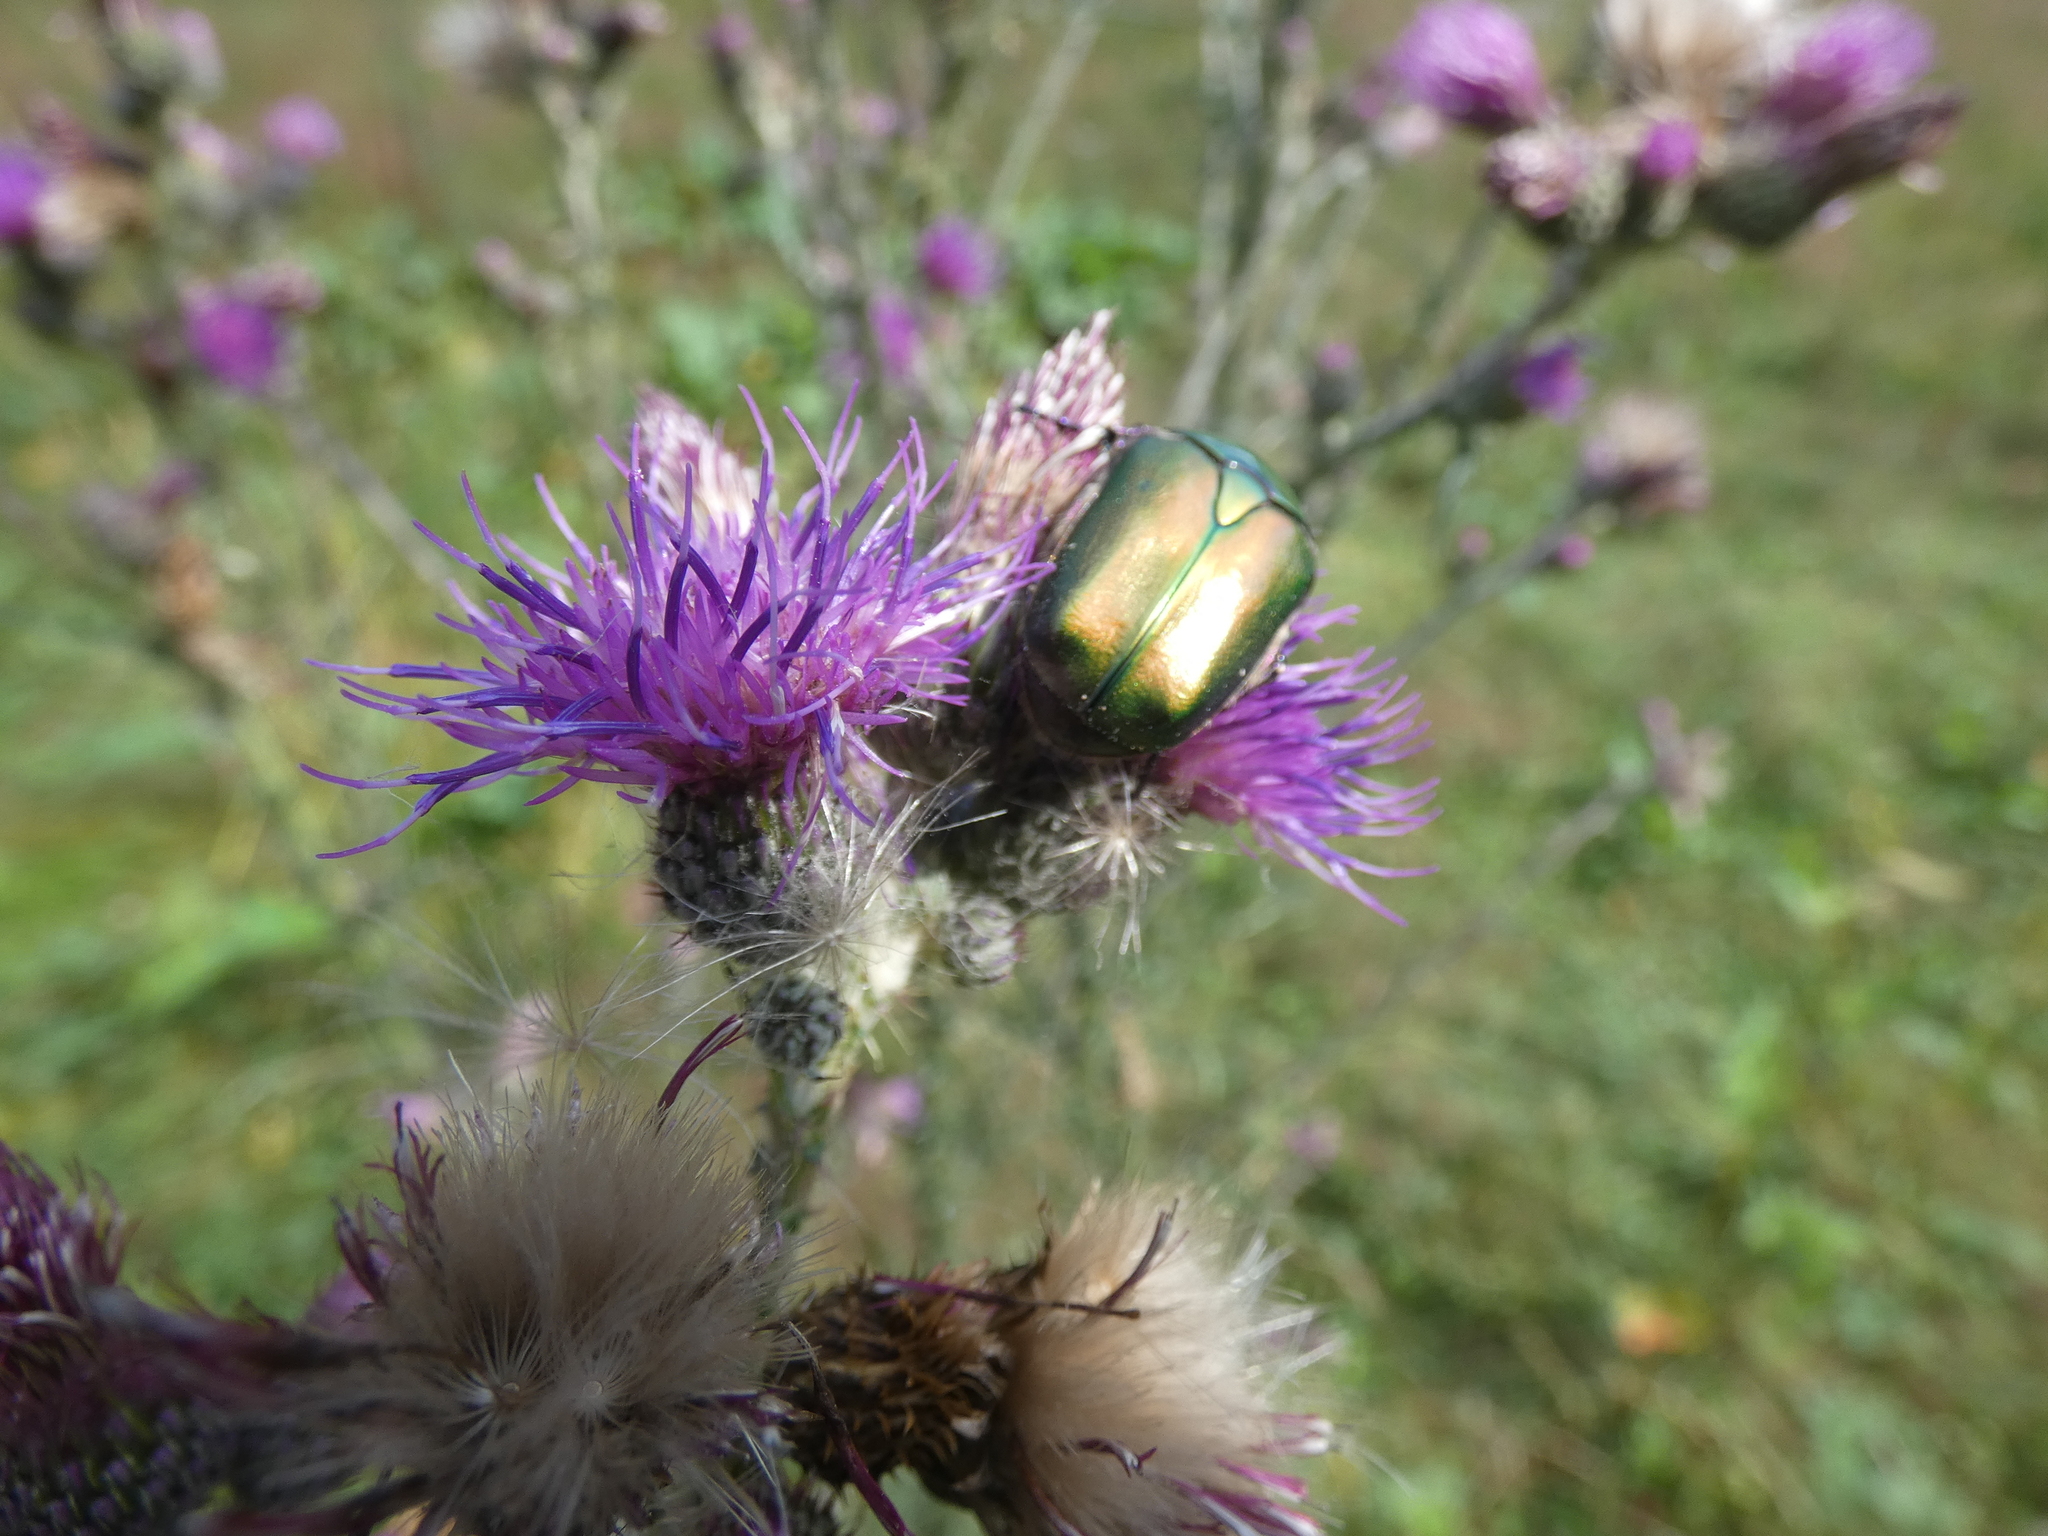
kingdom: Animalia
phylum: Arthropoda
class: Insecta
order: Coleoptera
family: Scarabaeidae
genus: Protaetia
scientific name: Protaetia cuprea
